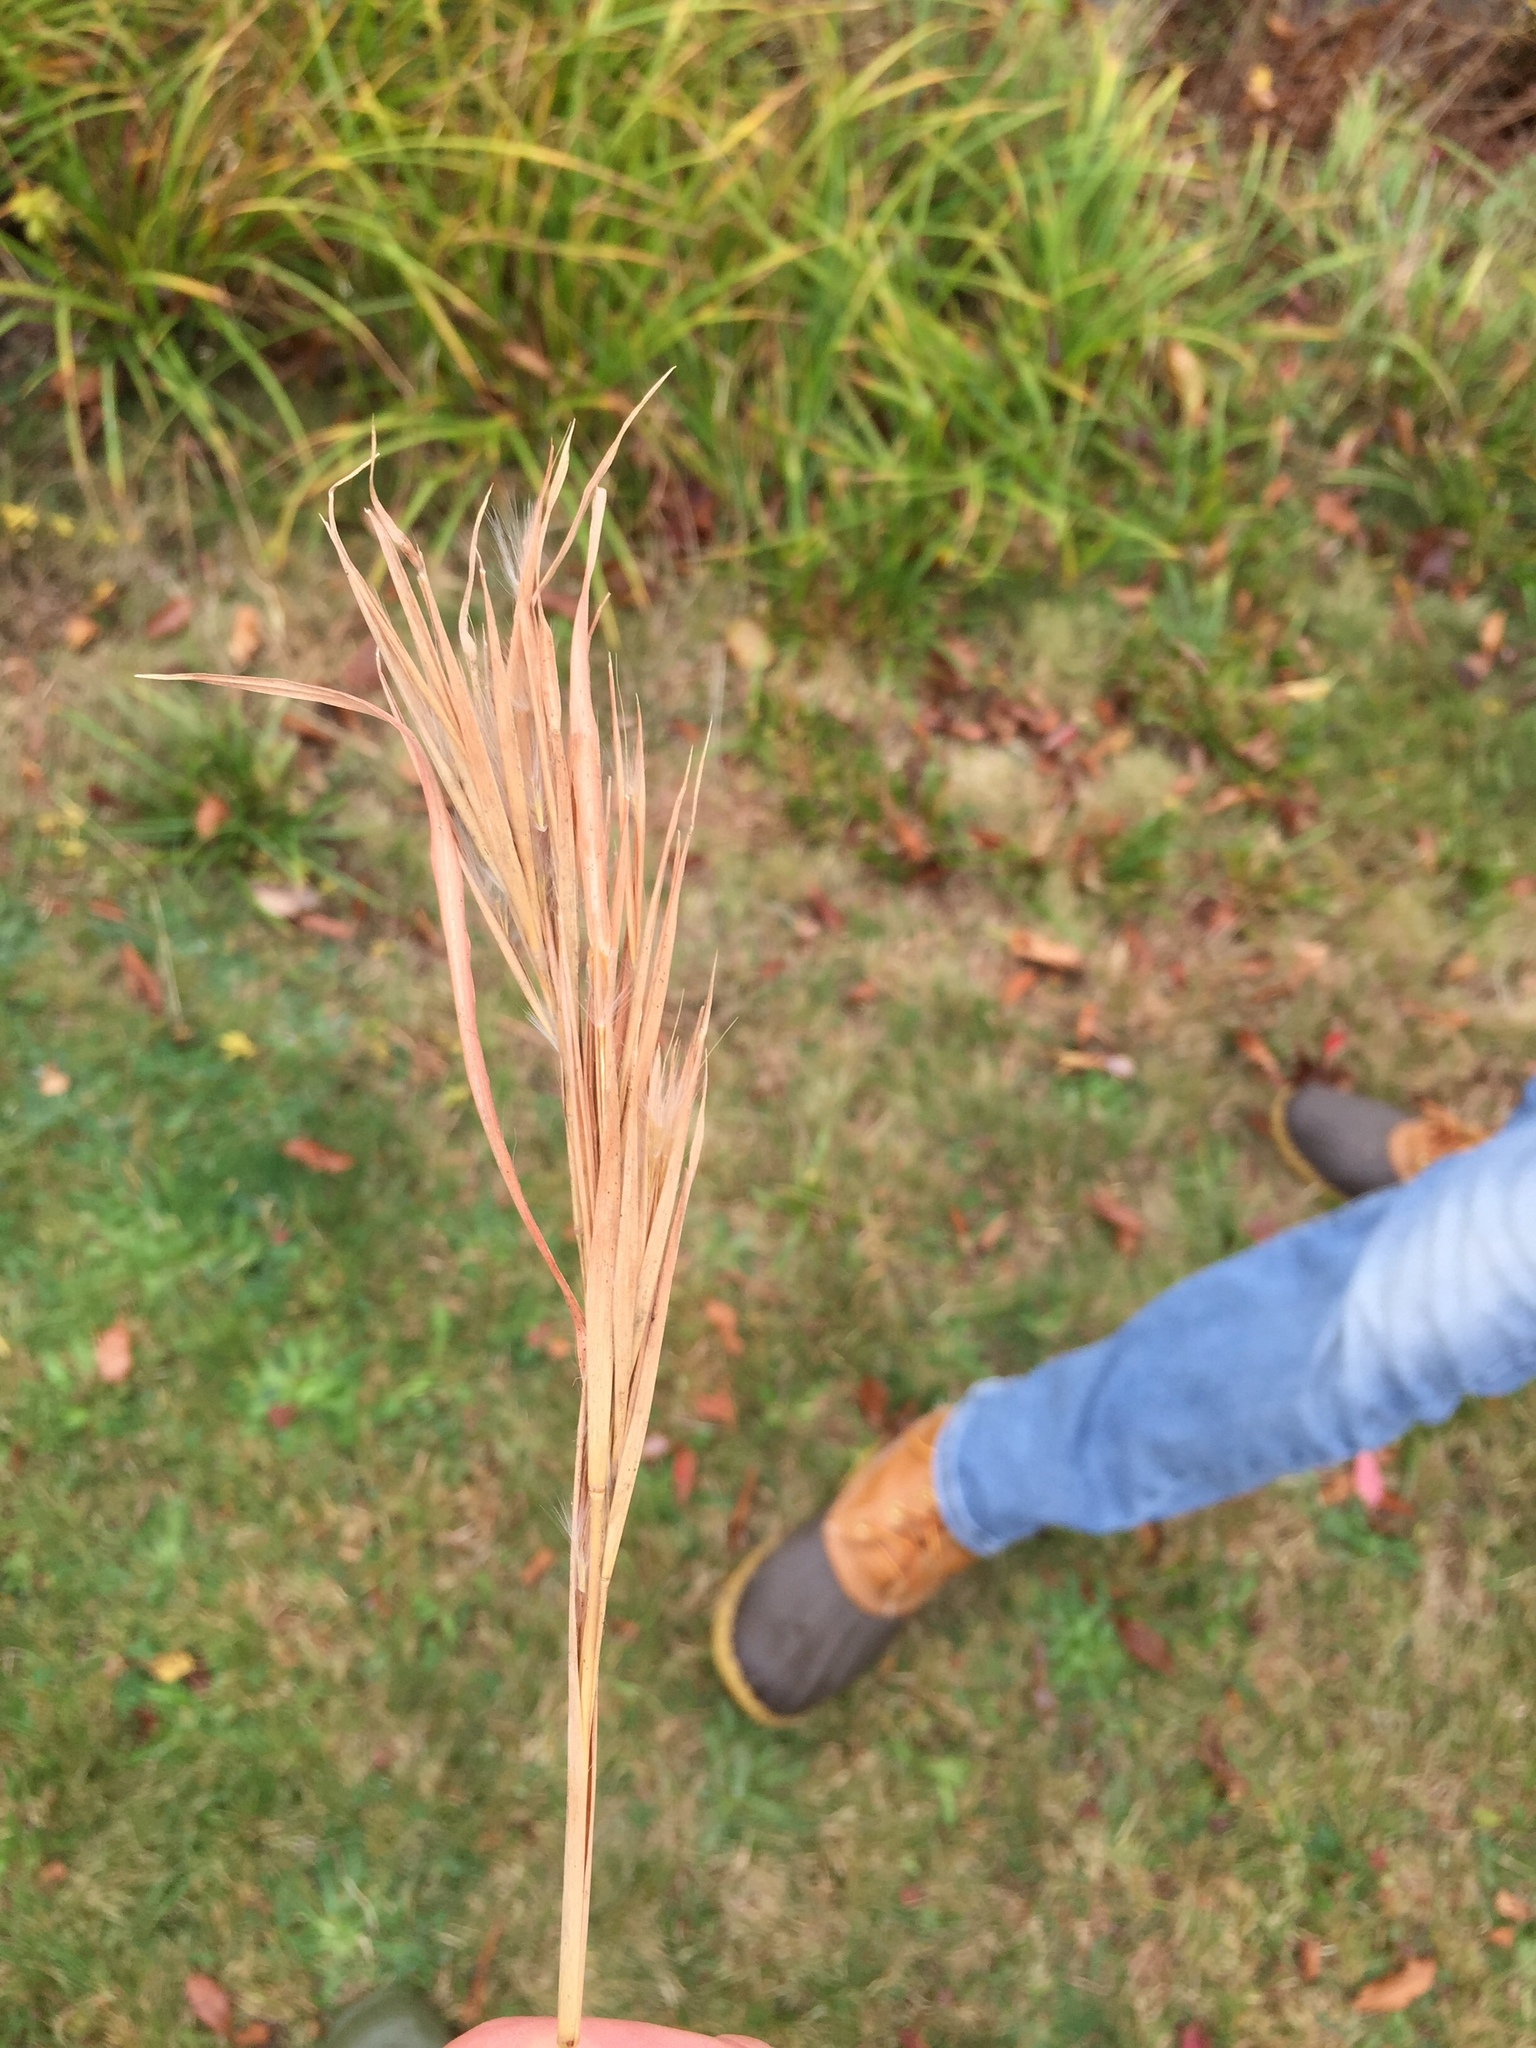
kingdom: Plantae
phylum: Tracheophyta
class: Liliopsida
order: Poales
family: Poaceae
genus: Andropogon
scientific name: Andropogon glomeratus
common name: Bushy beard grass
